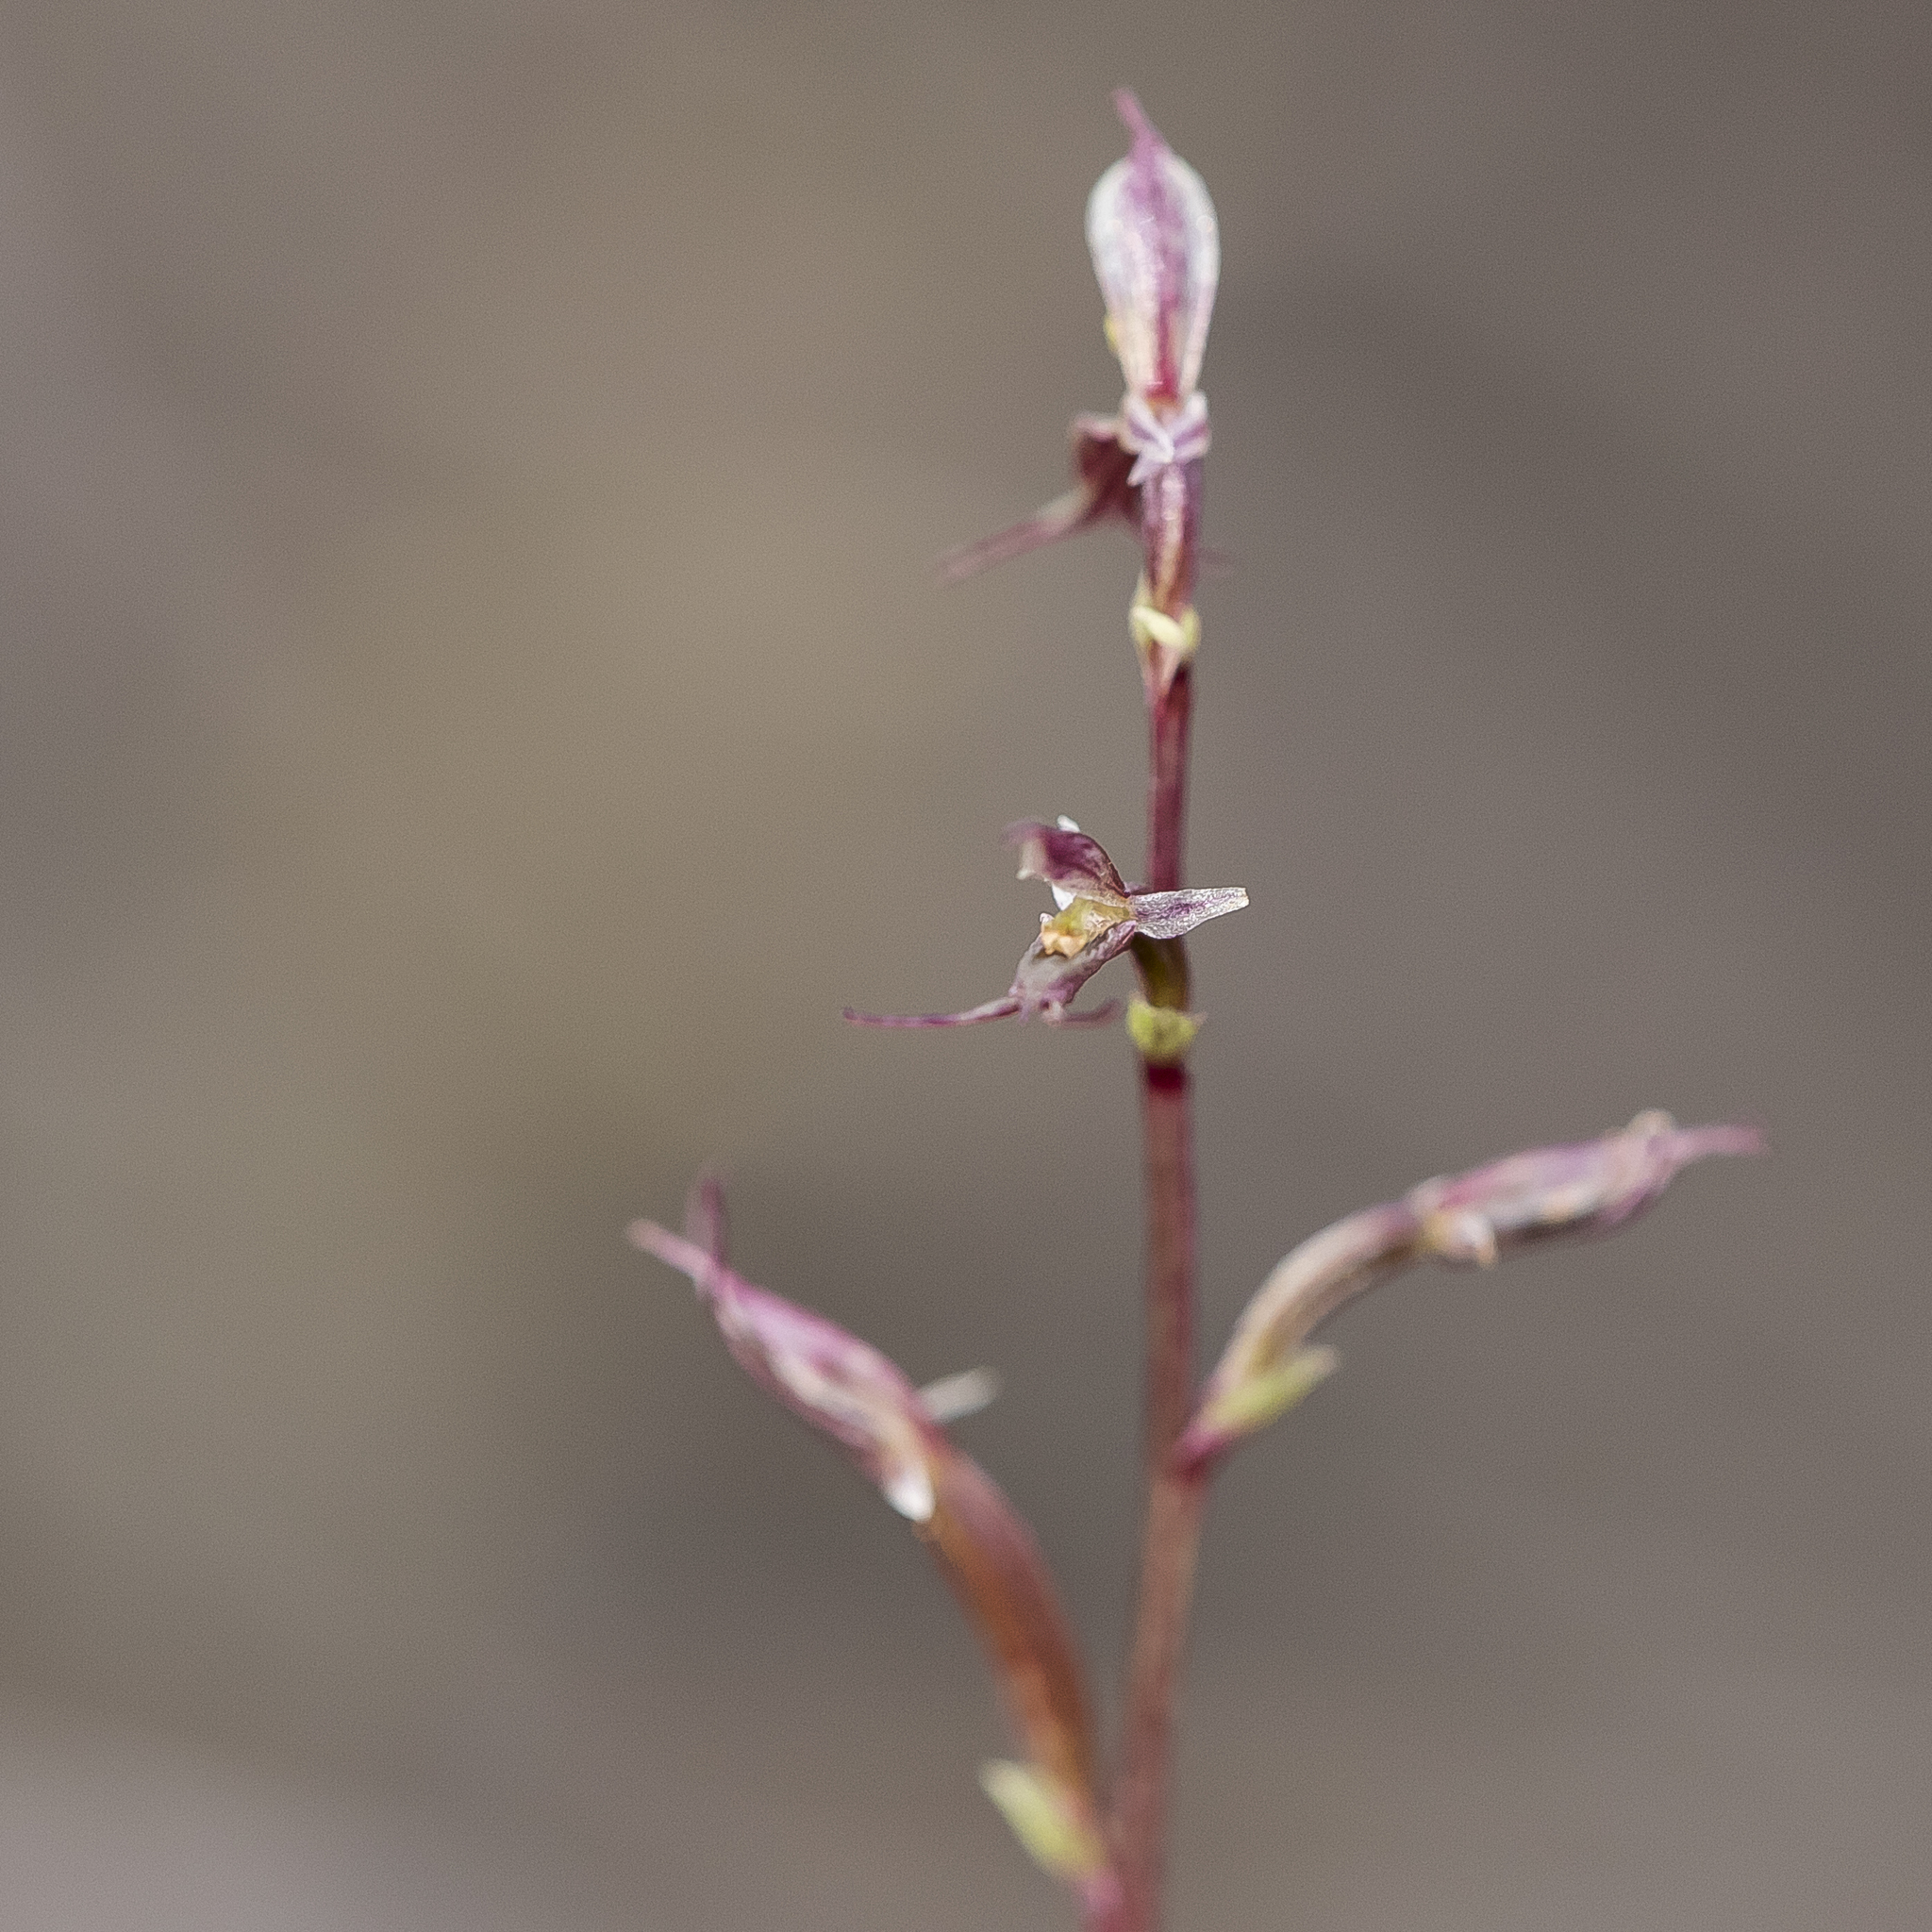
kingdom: Plantae
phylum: Tracheophyta
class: Liliopsida
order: Asparagales
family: Orchidaceae
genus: Acianthus
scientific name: Acianthus pusillus
